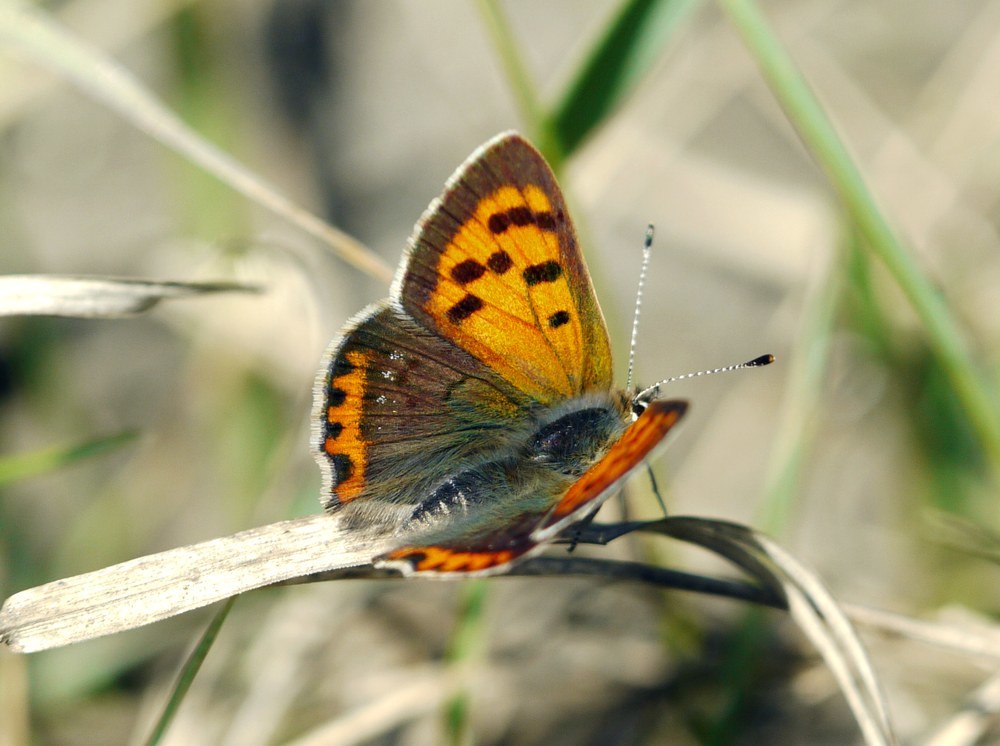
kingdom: Animalia
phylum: Arthropoda
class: Insecta
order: Lepidoptera
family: Lycaenidae
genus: Lycaena
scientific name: Lycaena phlaeas
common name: Small copper
